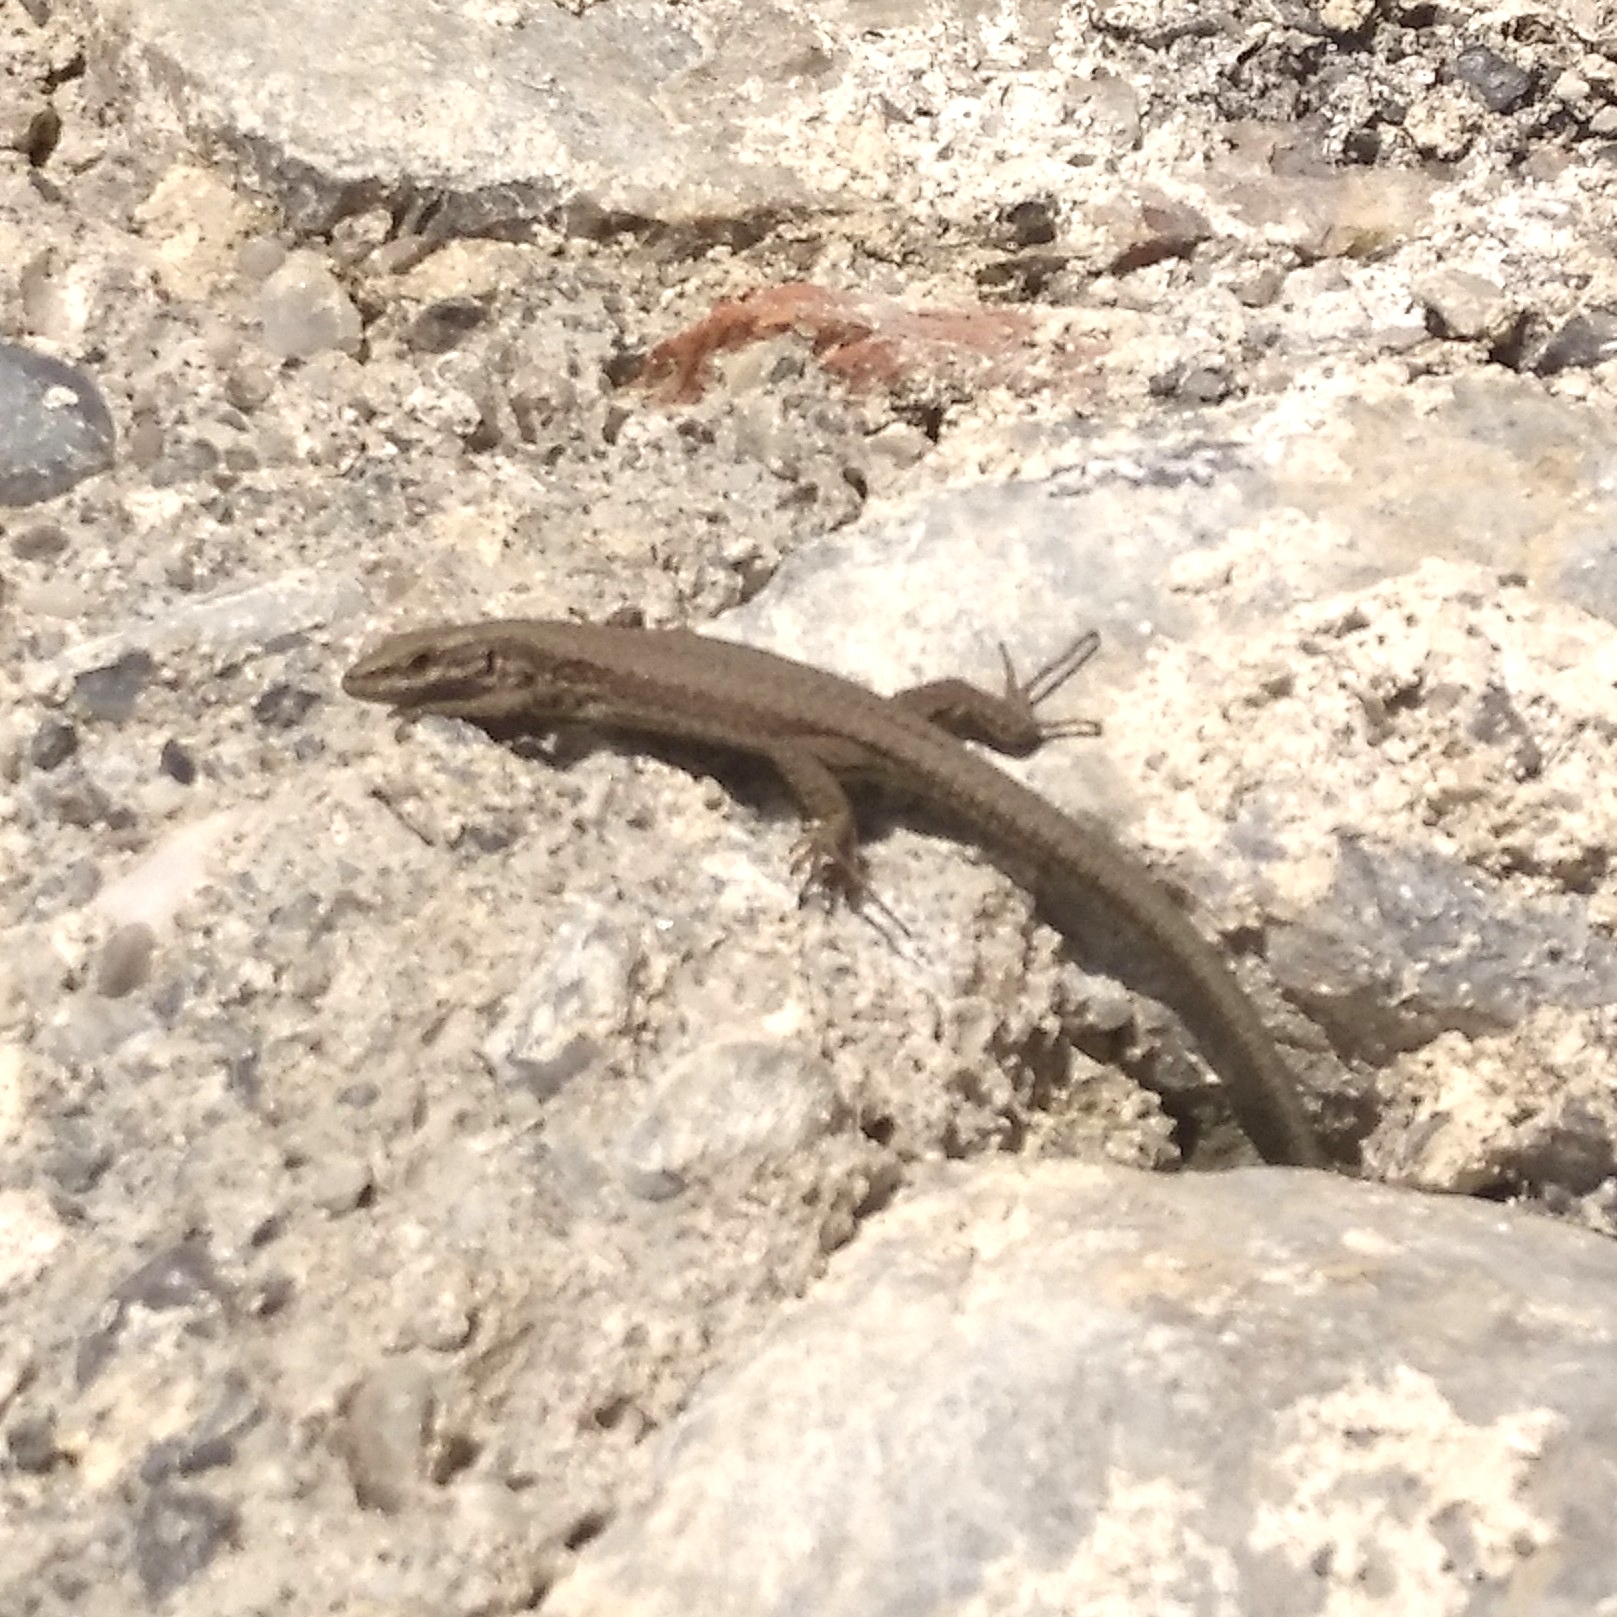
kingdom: Animalia
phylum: Chordata
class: Squamata
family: Lacertidae
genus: Podarcis
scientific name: Podarcis muralis
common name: Common wall lizard
